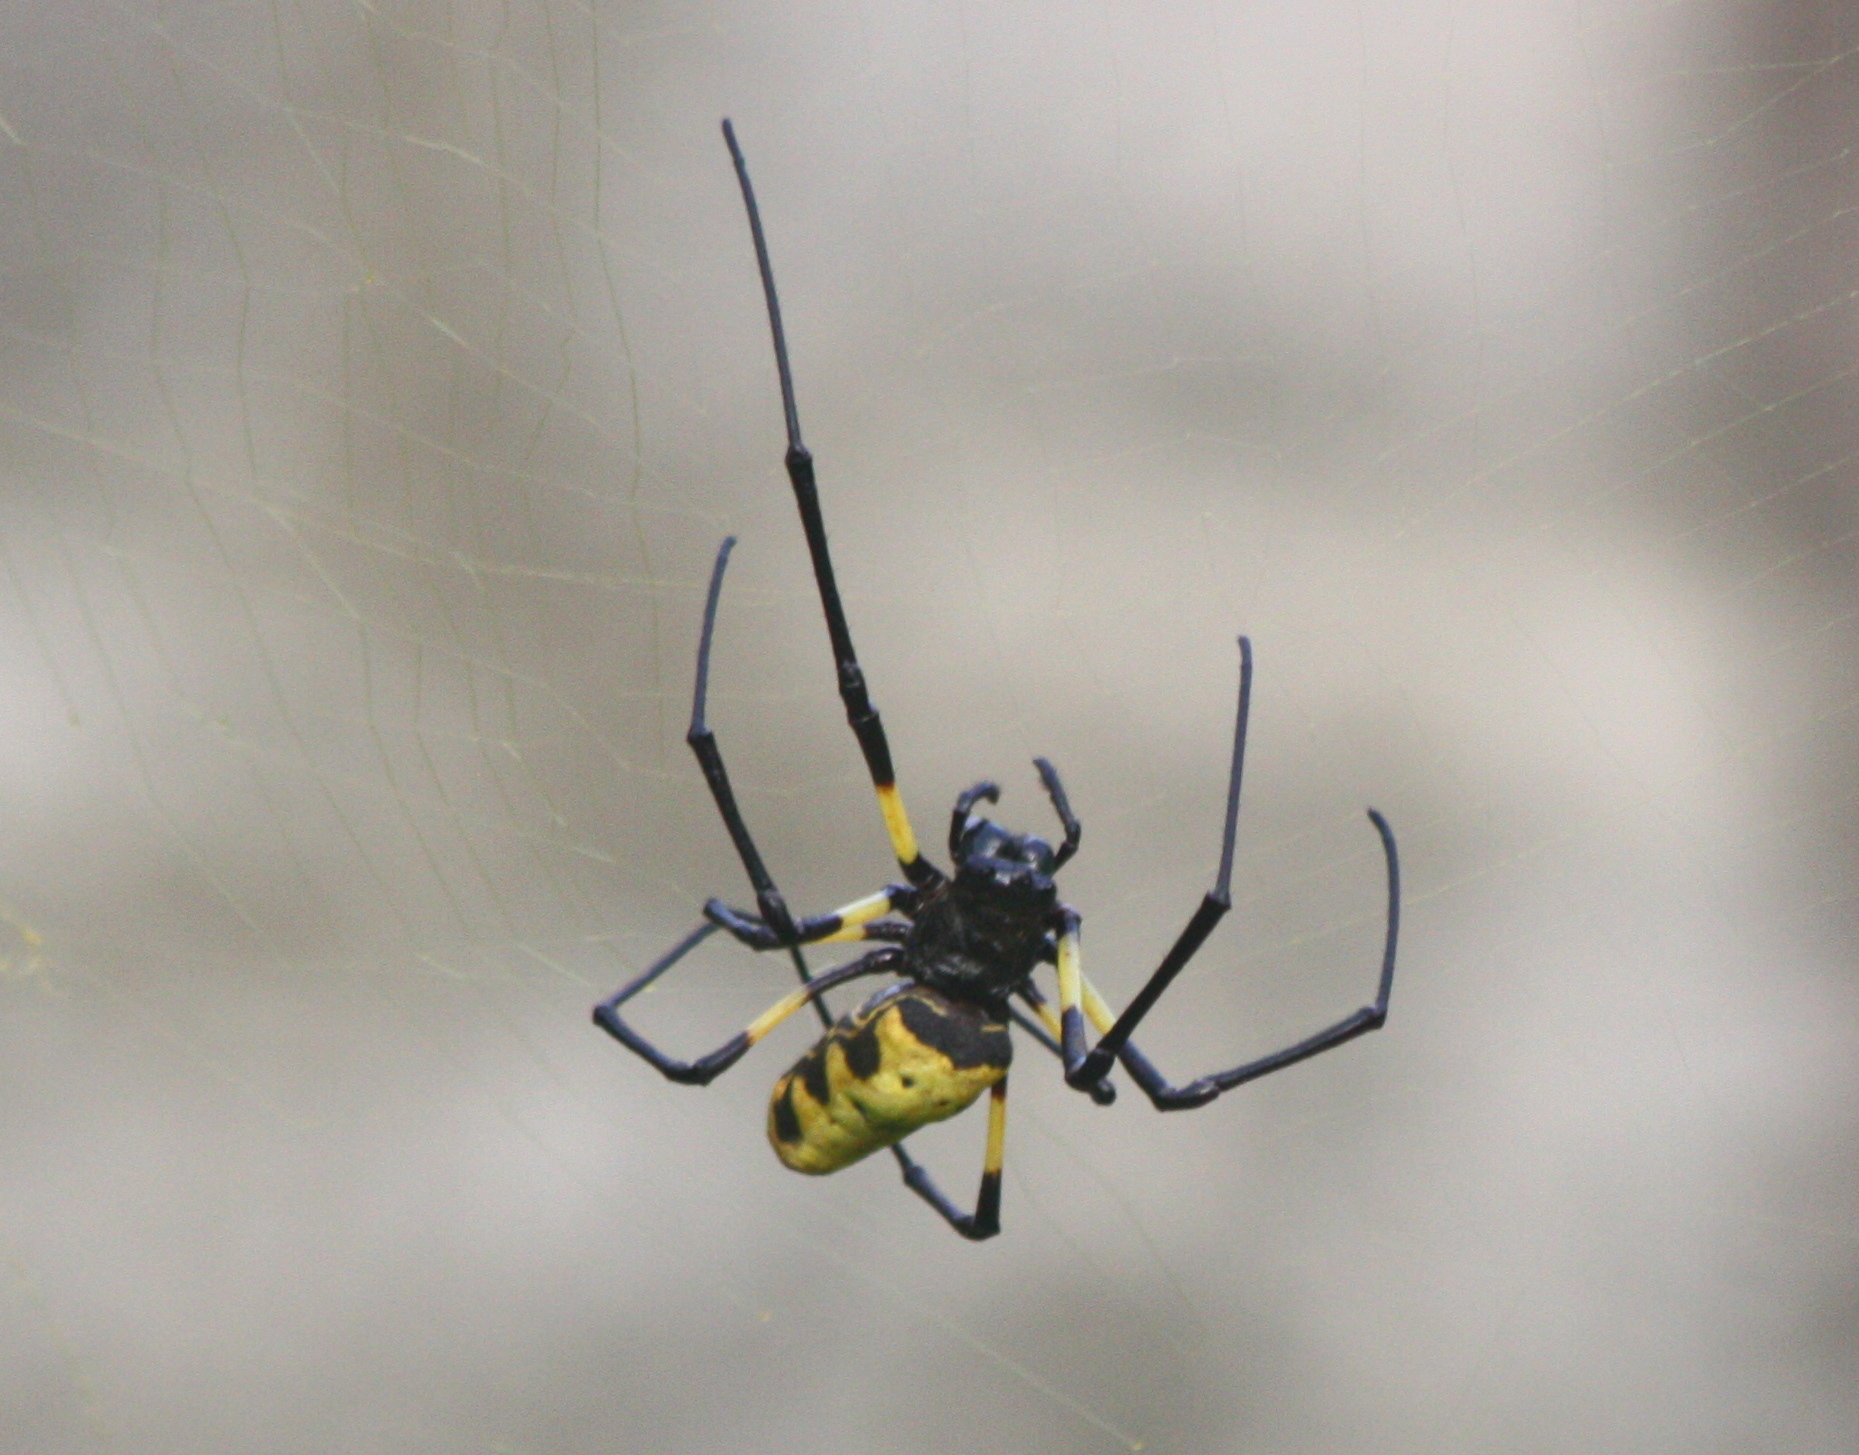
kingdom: Animalia
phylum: Arthropoda
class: Arachnida
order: Araneae
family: Araneidae
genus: Trichonephila
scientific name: Trichonephila turneri
